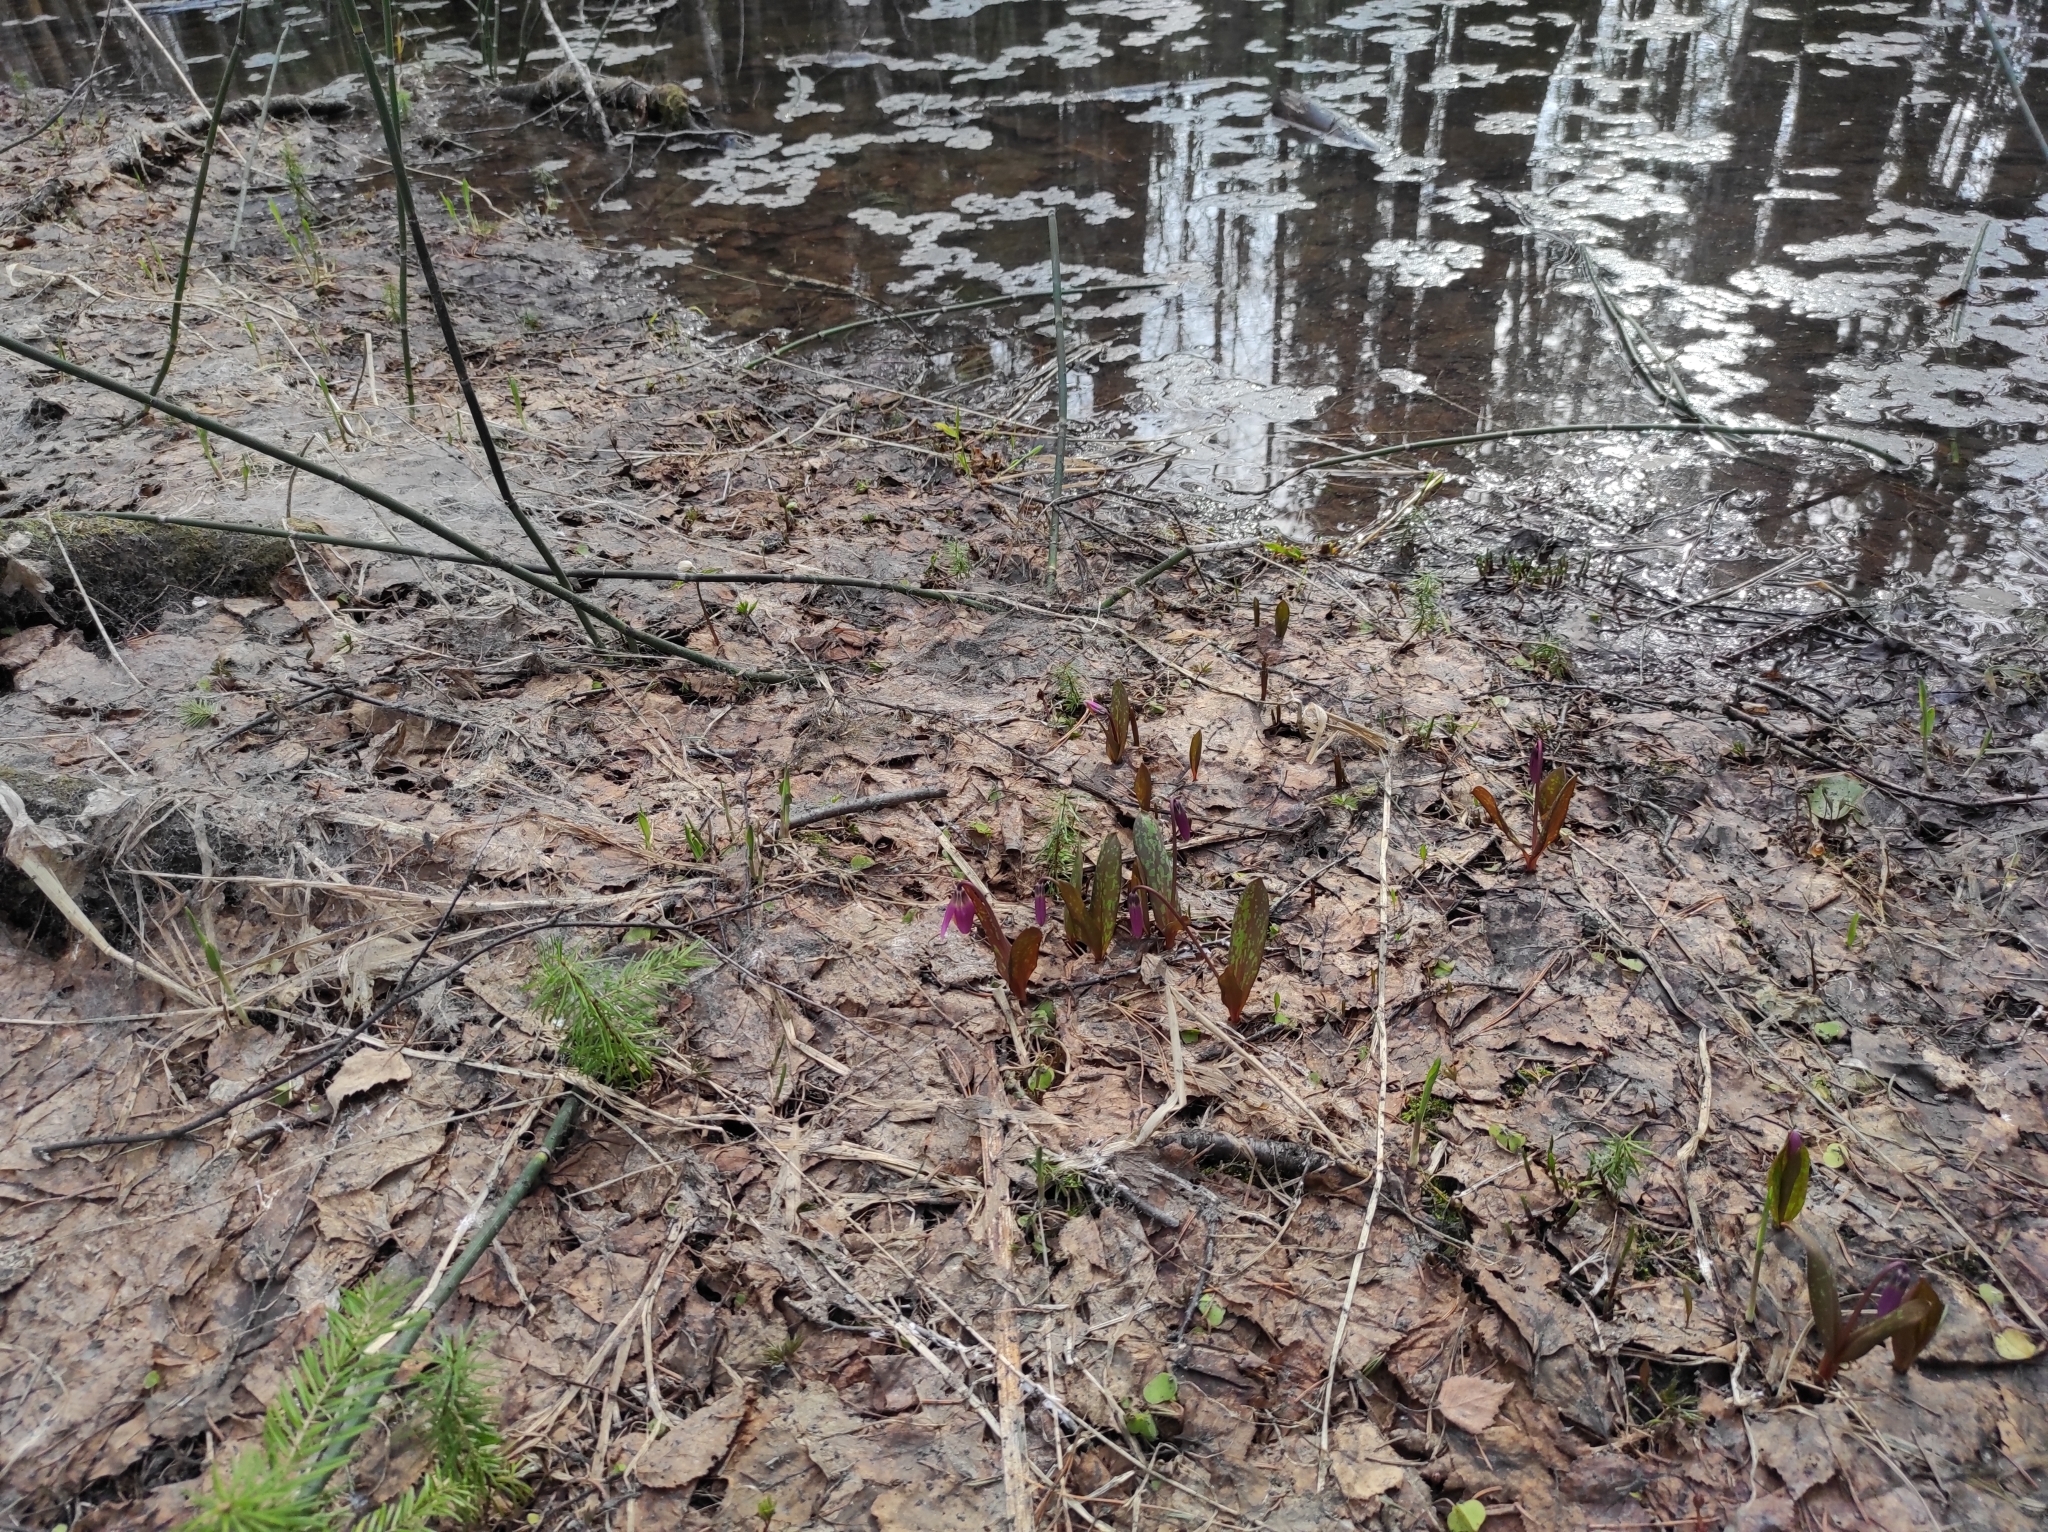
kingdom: Plantae
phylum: Tracheophyta
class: Liliopsida
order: Liliales
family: Liliaceae
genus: Erythronium
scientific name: Erythronium sibiricum
